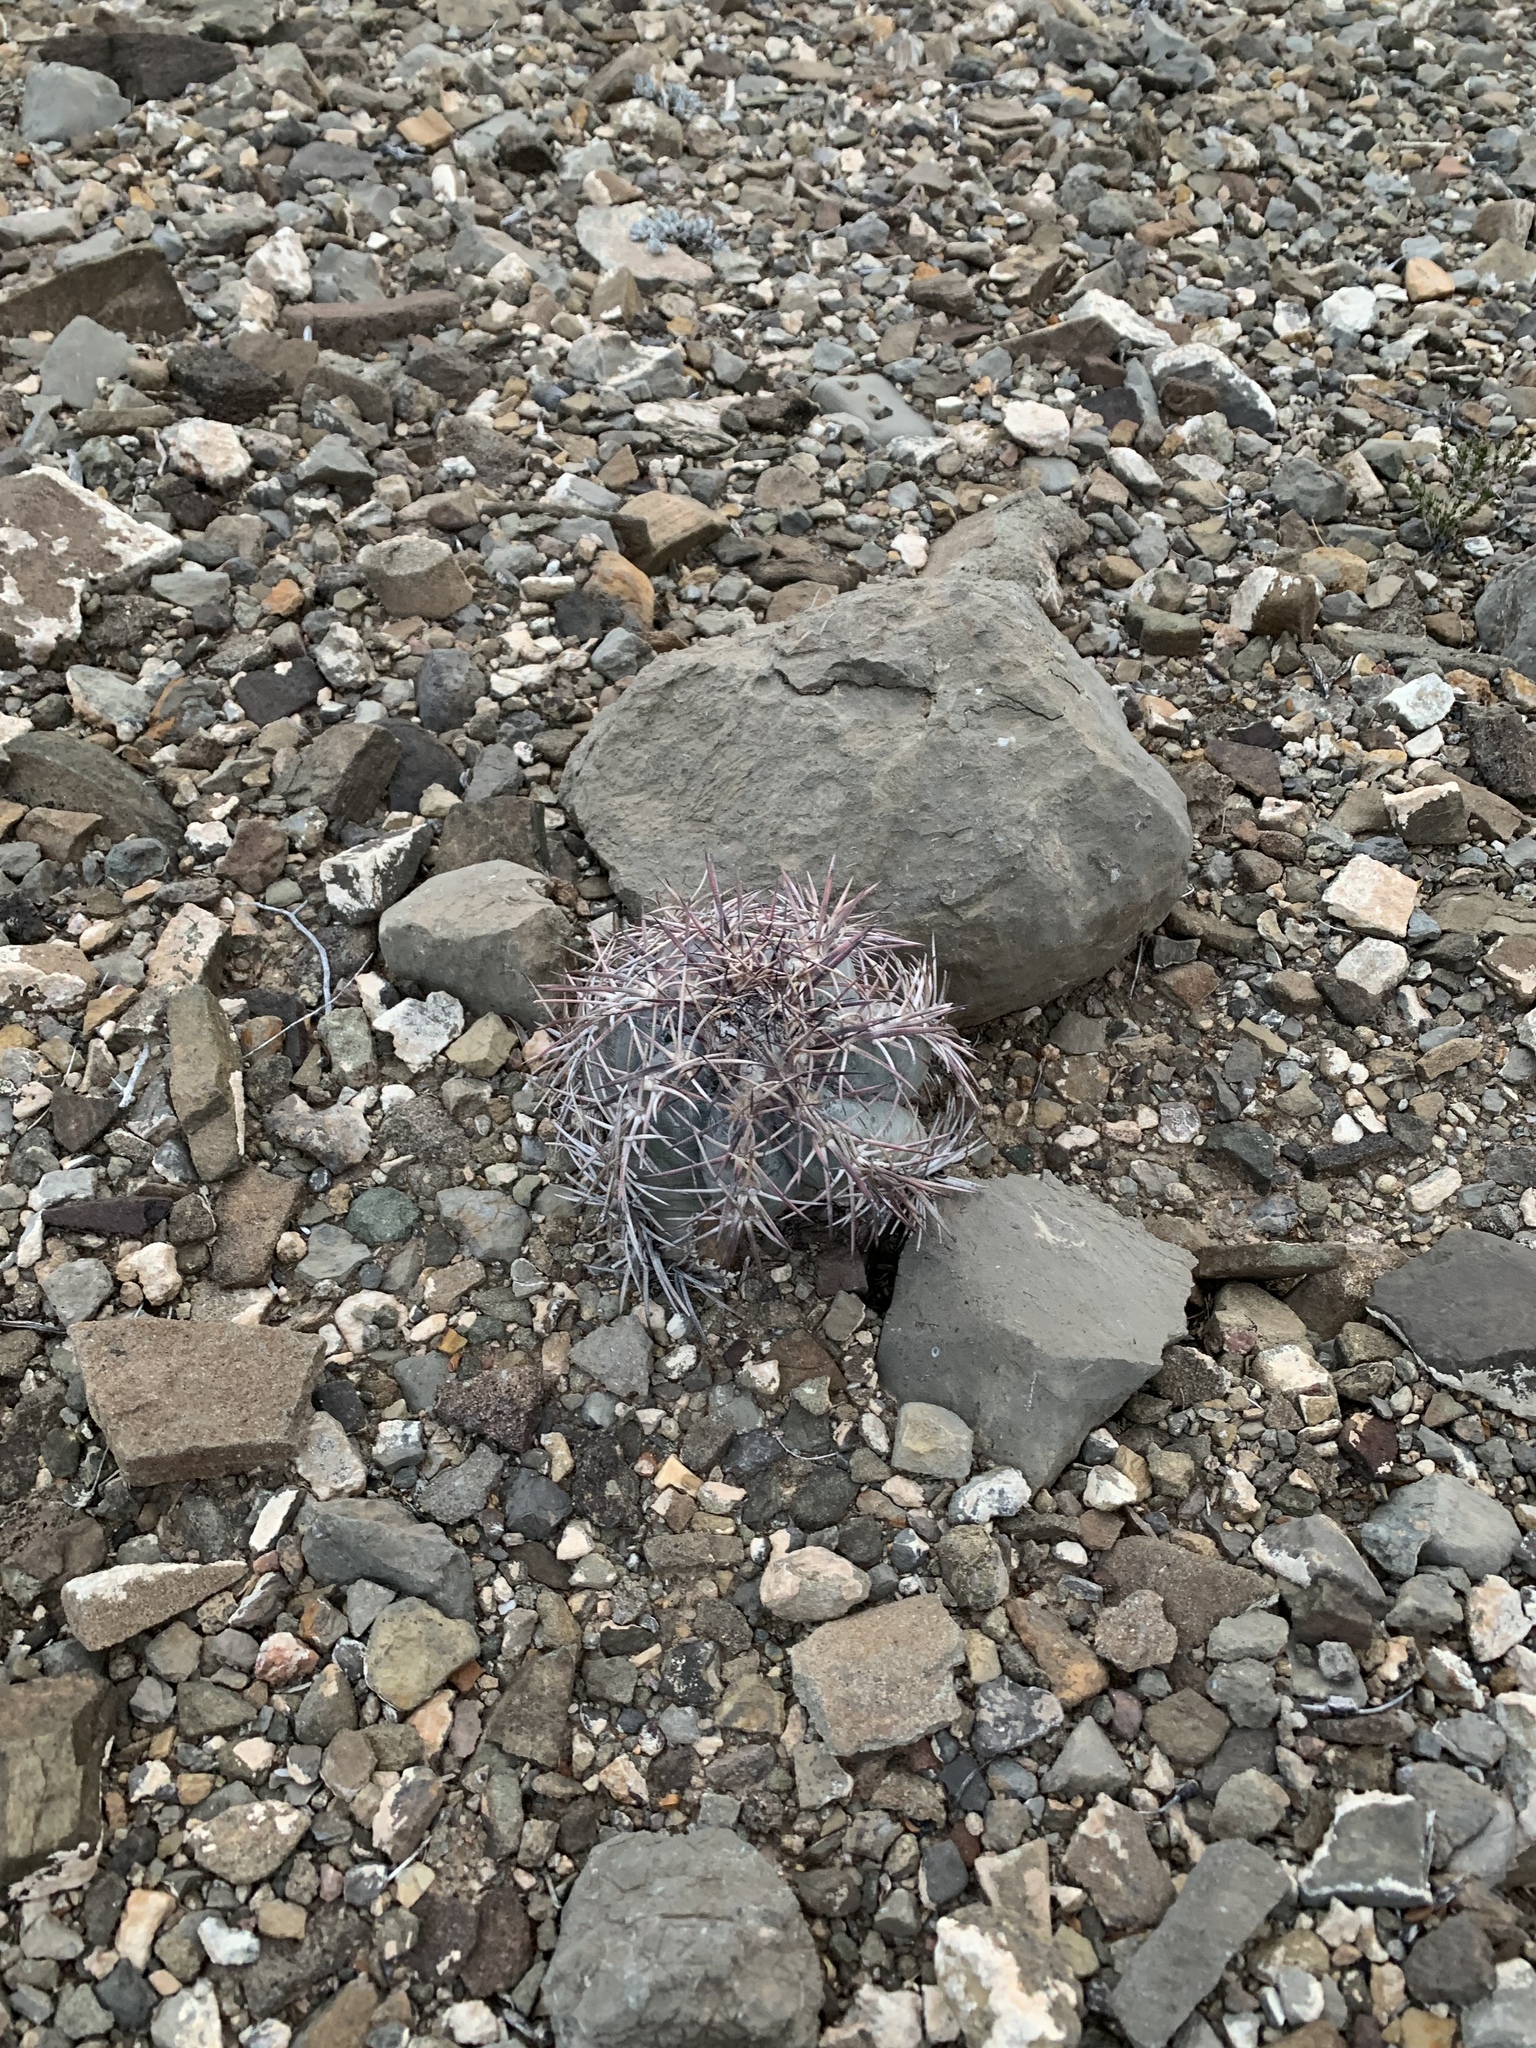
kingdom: Plantae
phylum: Tracheophyta
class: Magnoliopsida
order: Caryophyllales
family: Cactaceae
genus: Echinocactus
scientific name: Echinocactus horizonthalonius
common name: Devilshead
